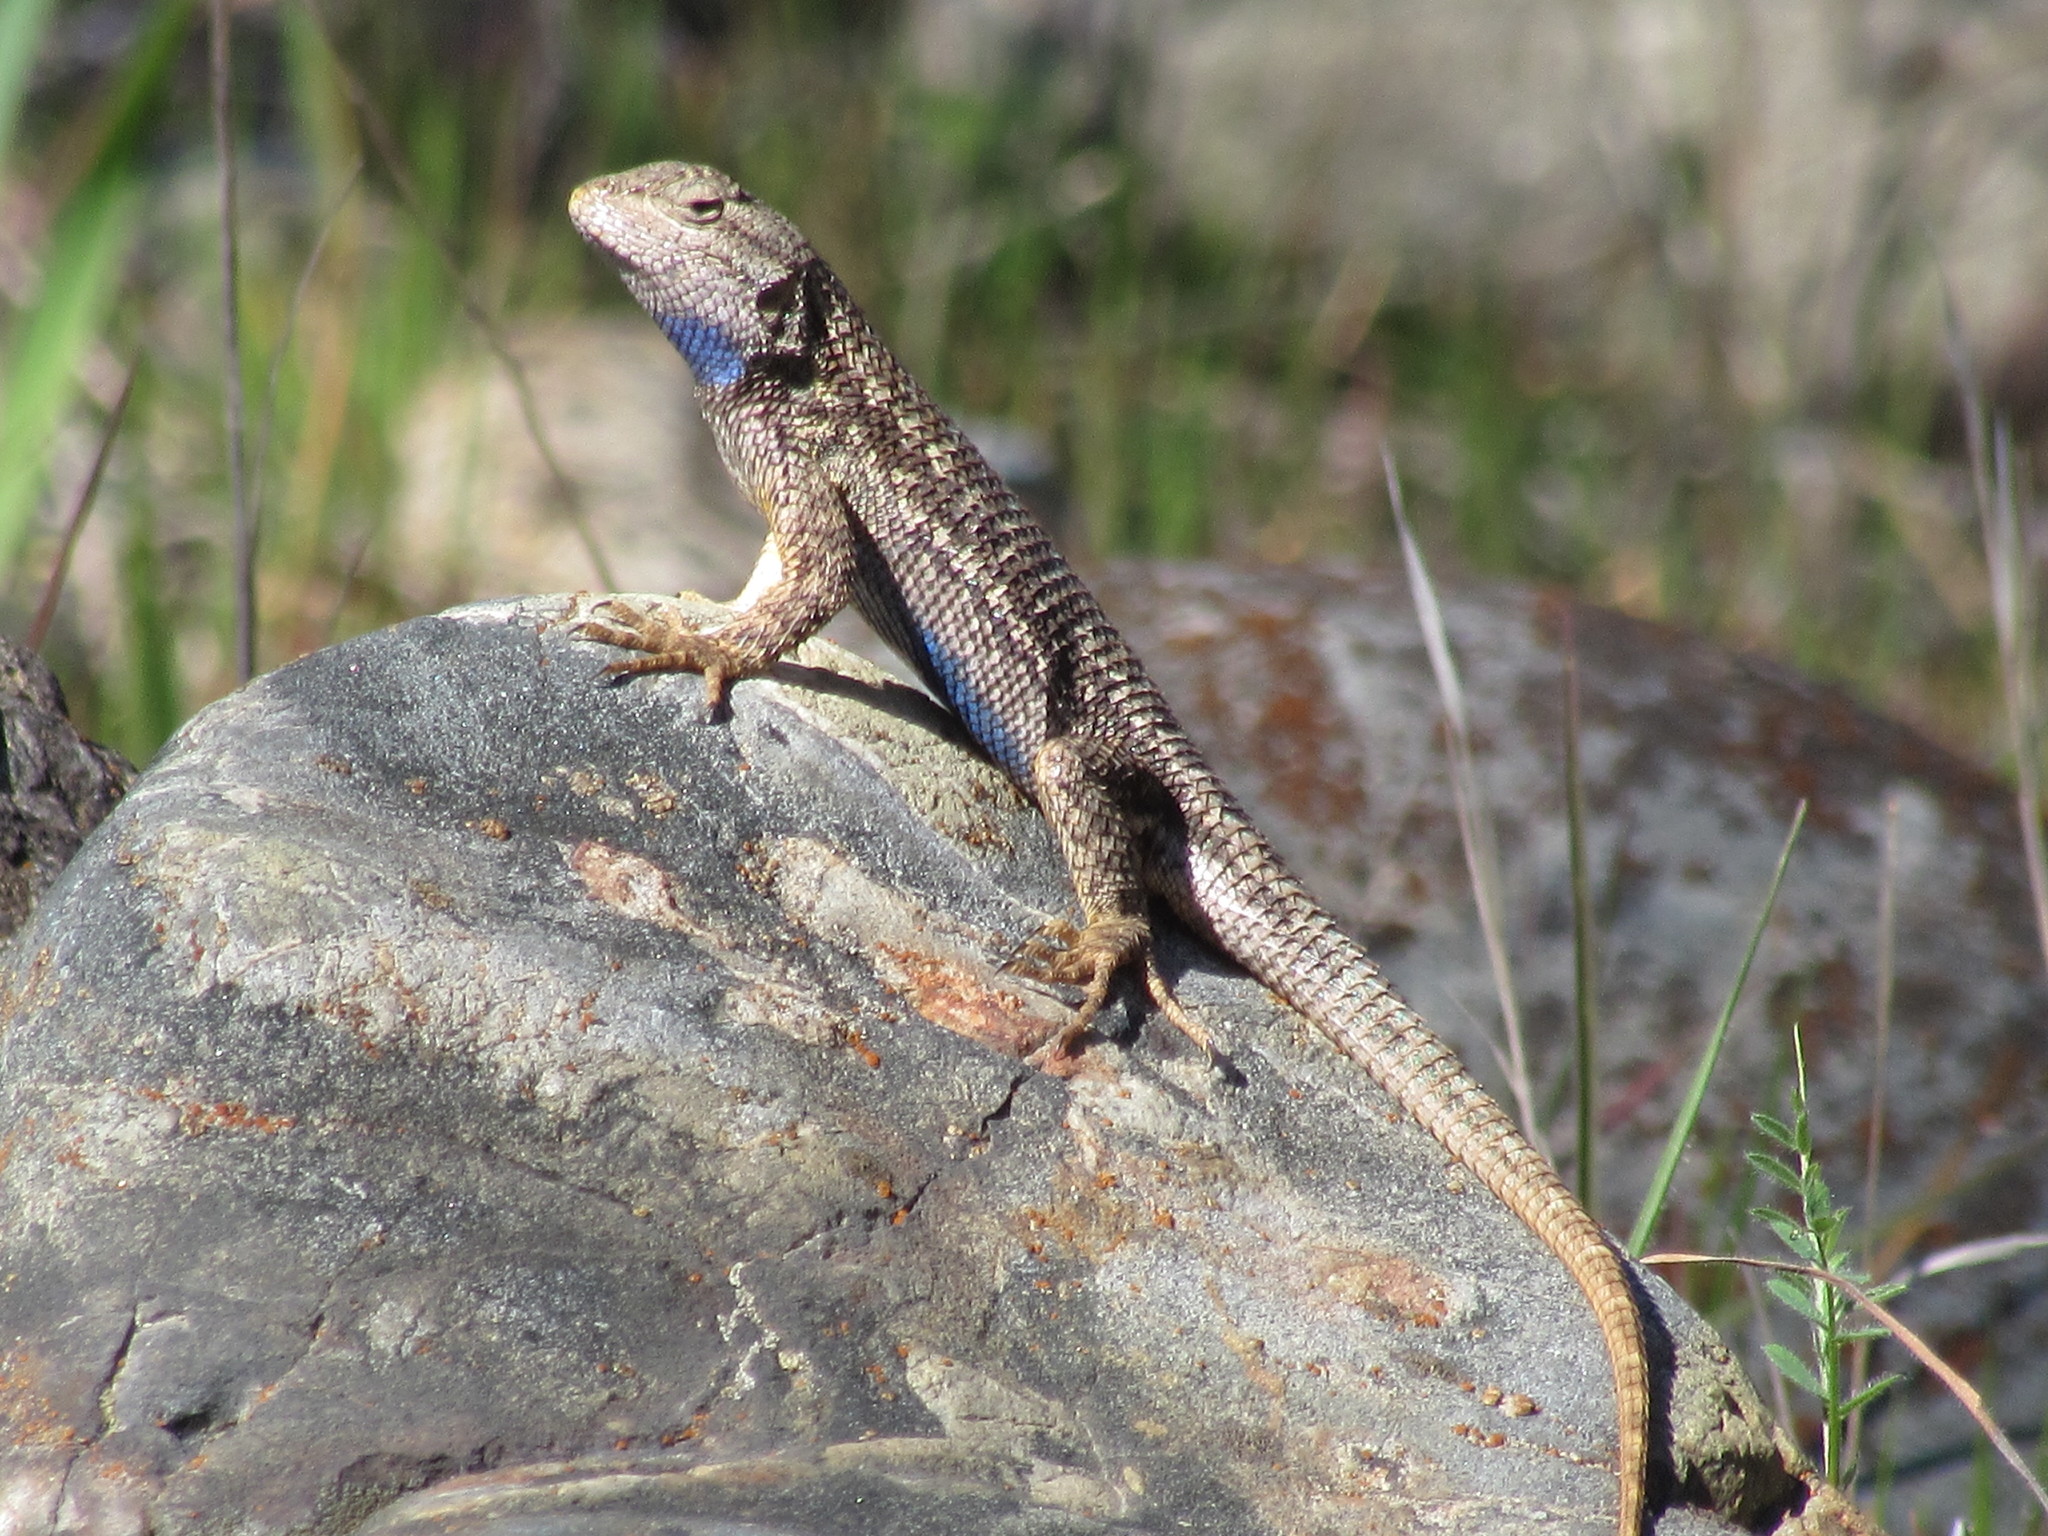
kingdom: Animalia
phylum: Chordata
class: Squamata
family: Phrynosomatidae
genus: Sceloporus
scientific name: Sceloporus occidentalis
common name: Western fence lizard
